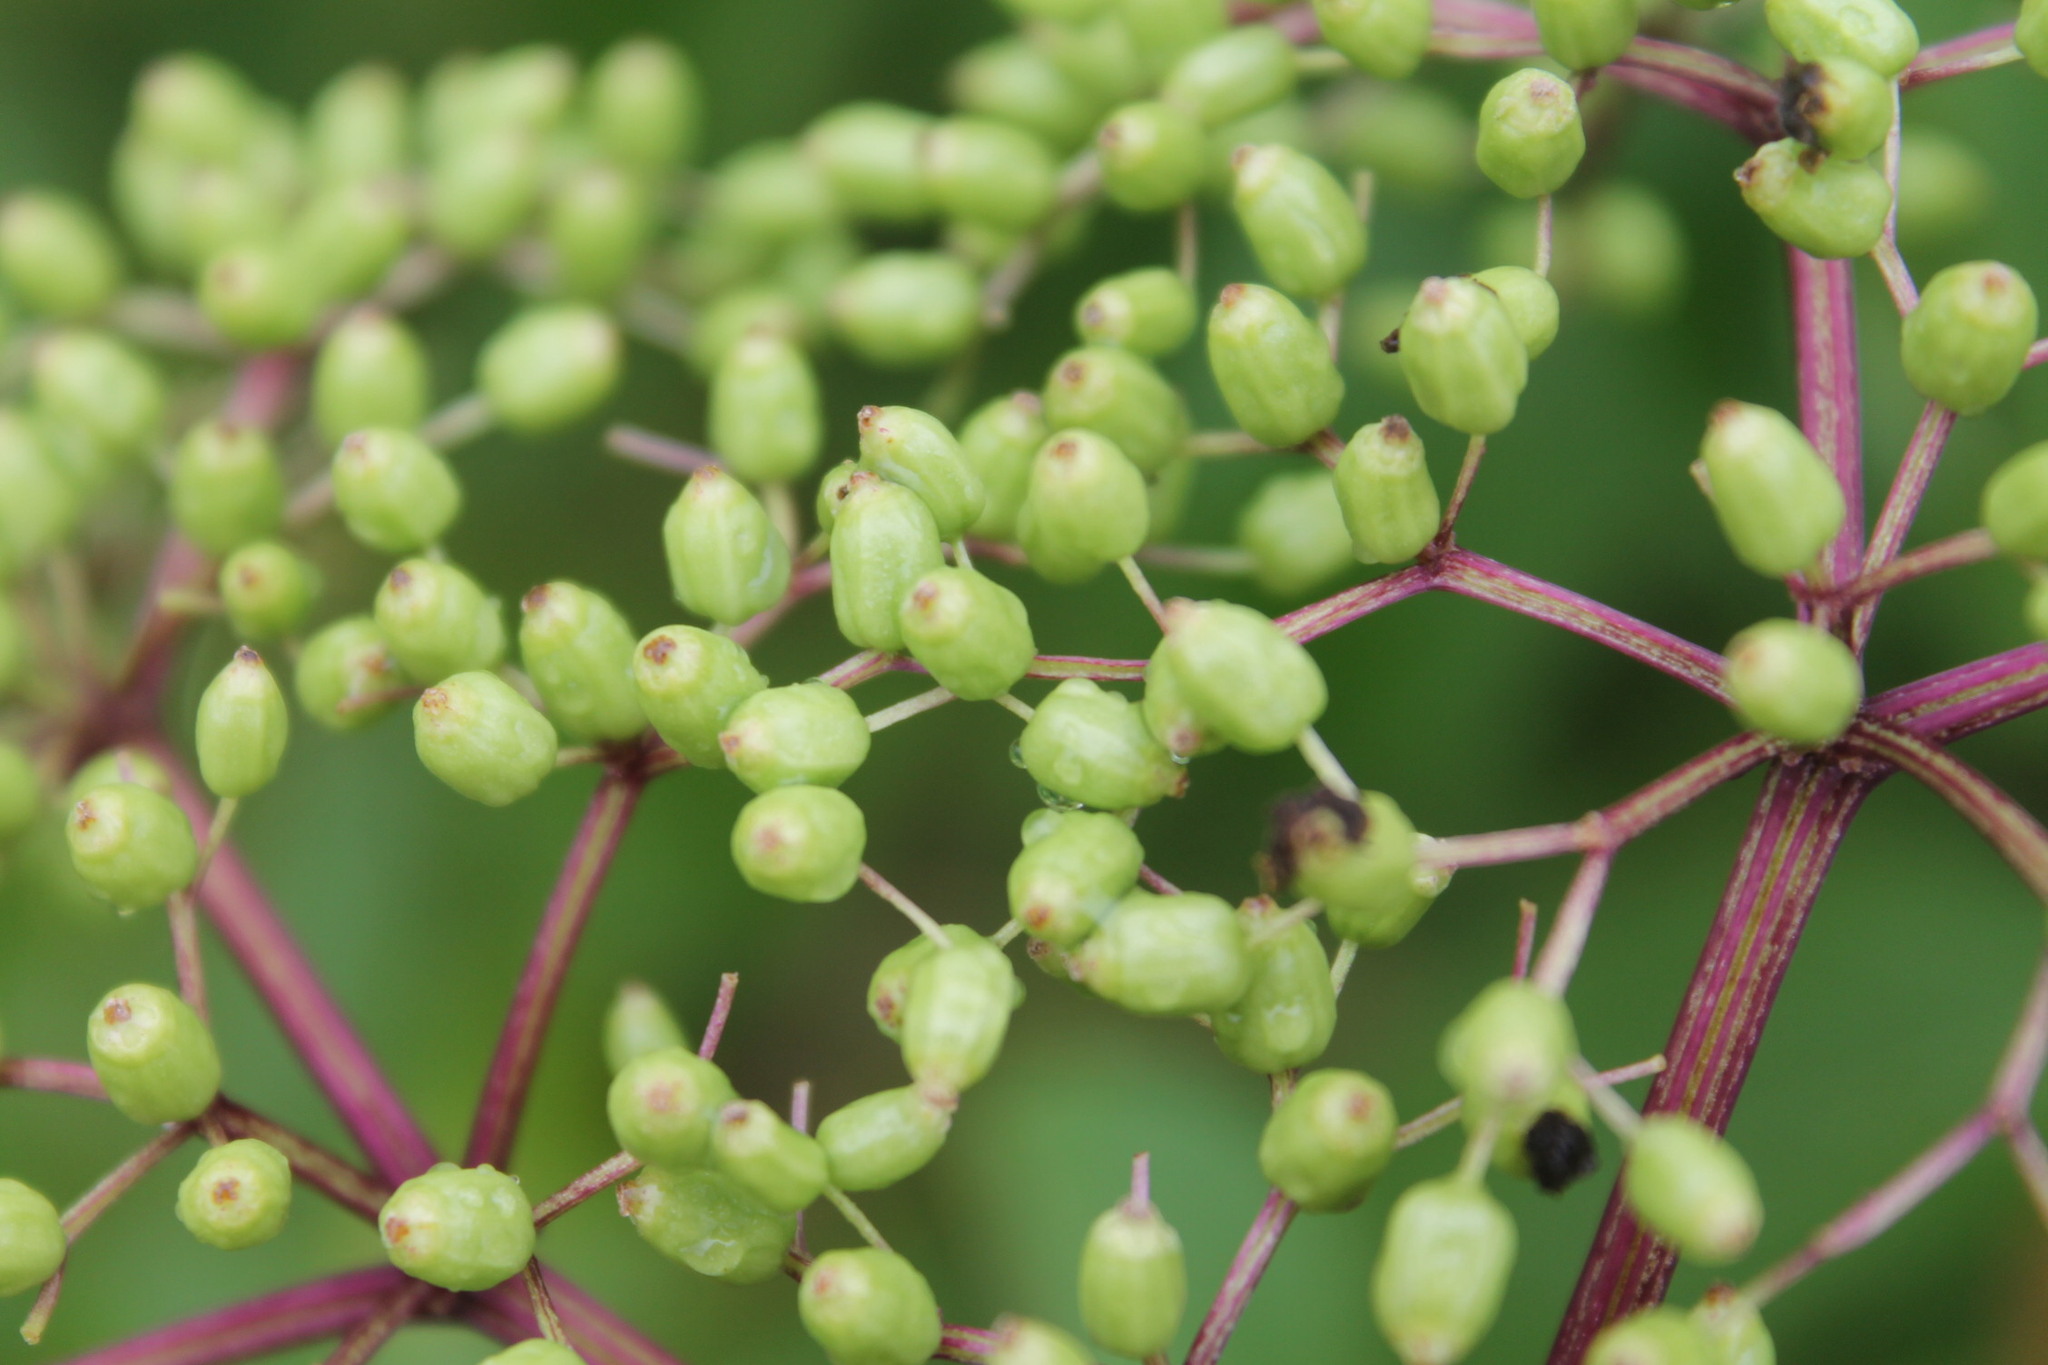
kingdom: Plantae
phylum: Tracheophyta
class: Magnoliopsida
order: Dipsacales
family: Viburnaceae
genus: Sambucus
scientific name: Sambucus canadensis
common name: American elder
